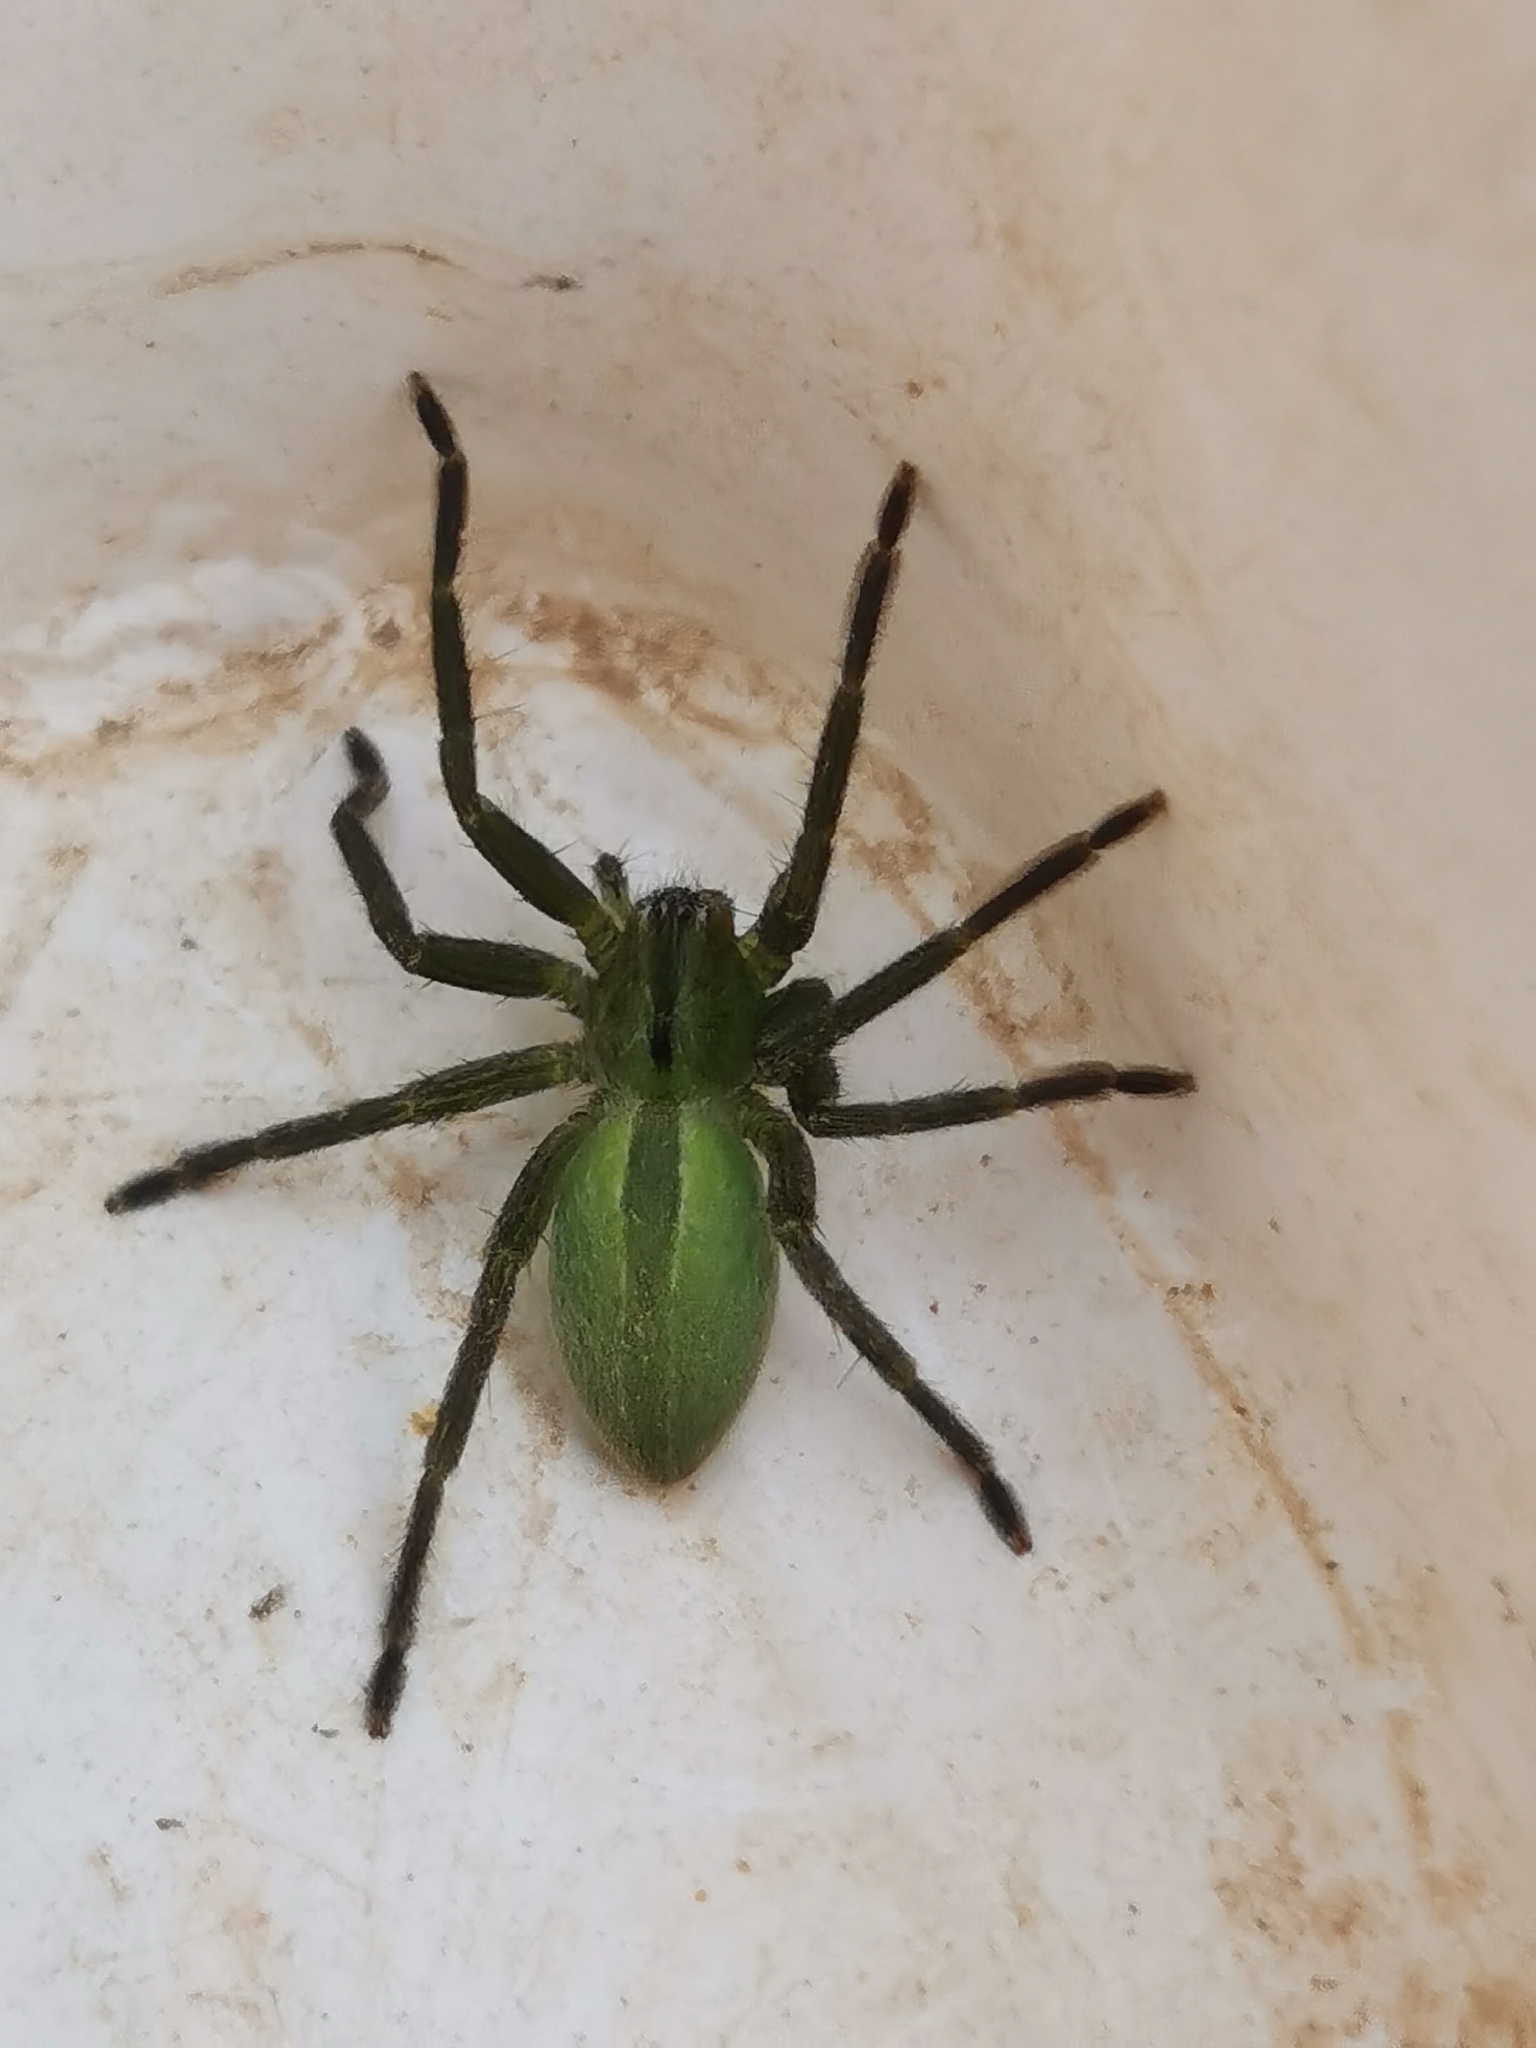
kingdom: Animalia
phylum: Arthropoda
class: Arachnida
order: Araneae
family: Sparassidae
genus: Micrommata
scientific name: Micrommata ligurina
